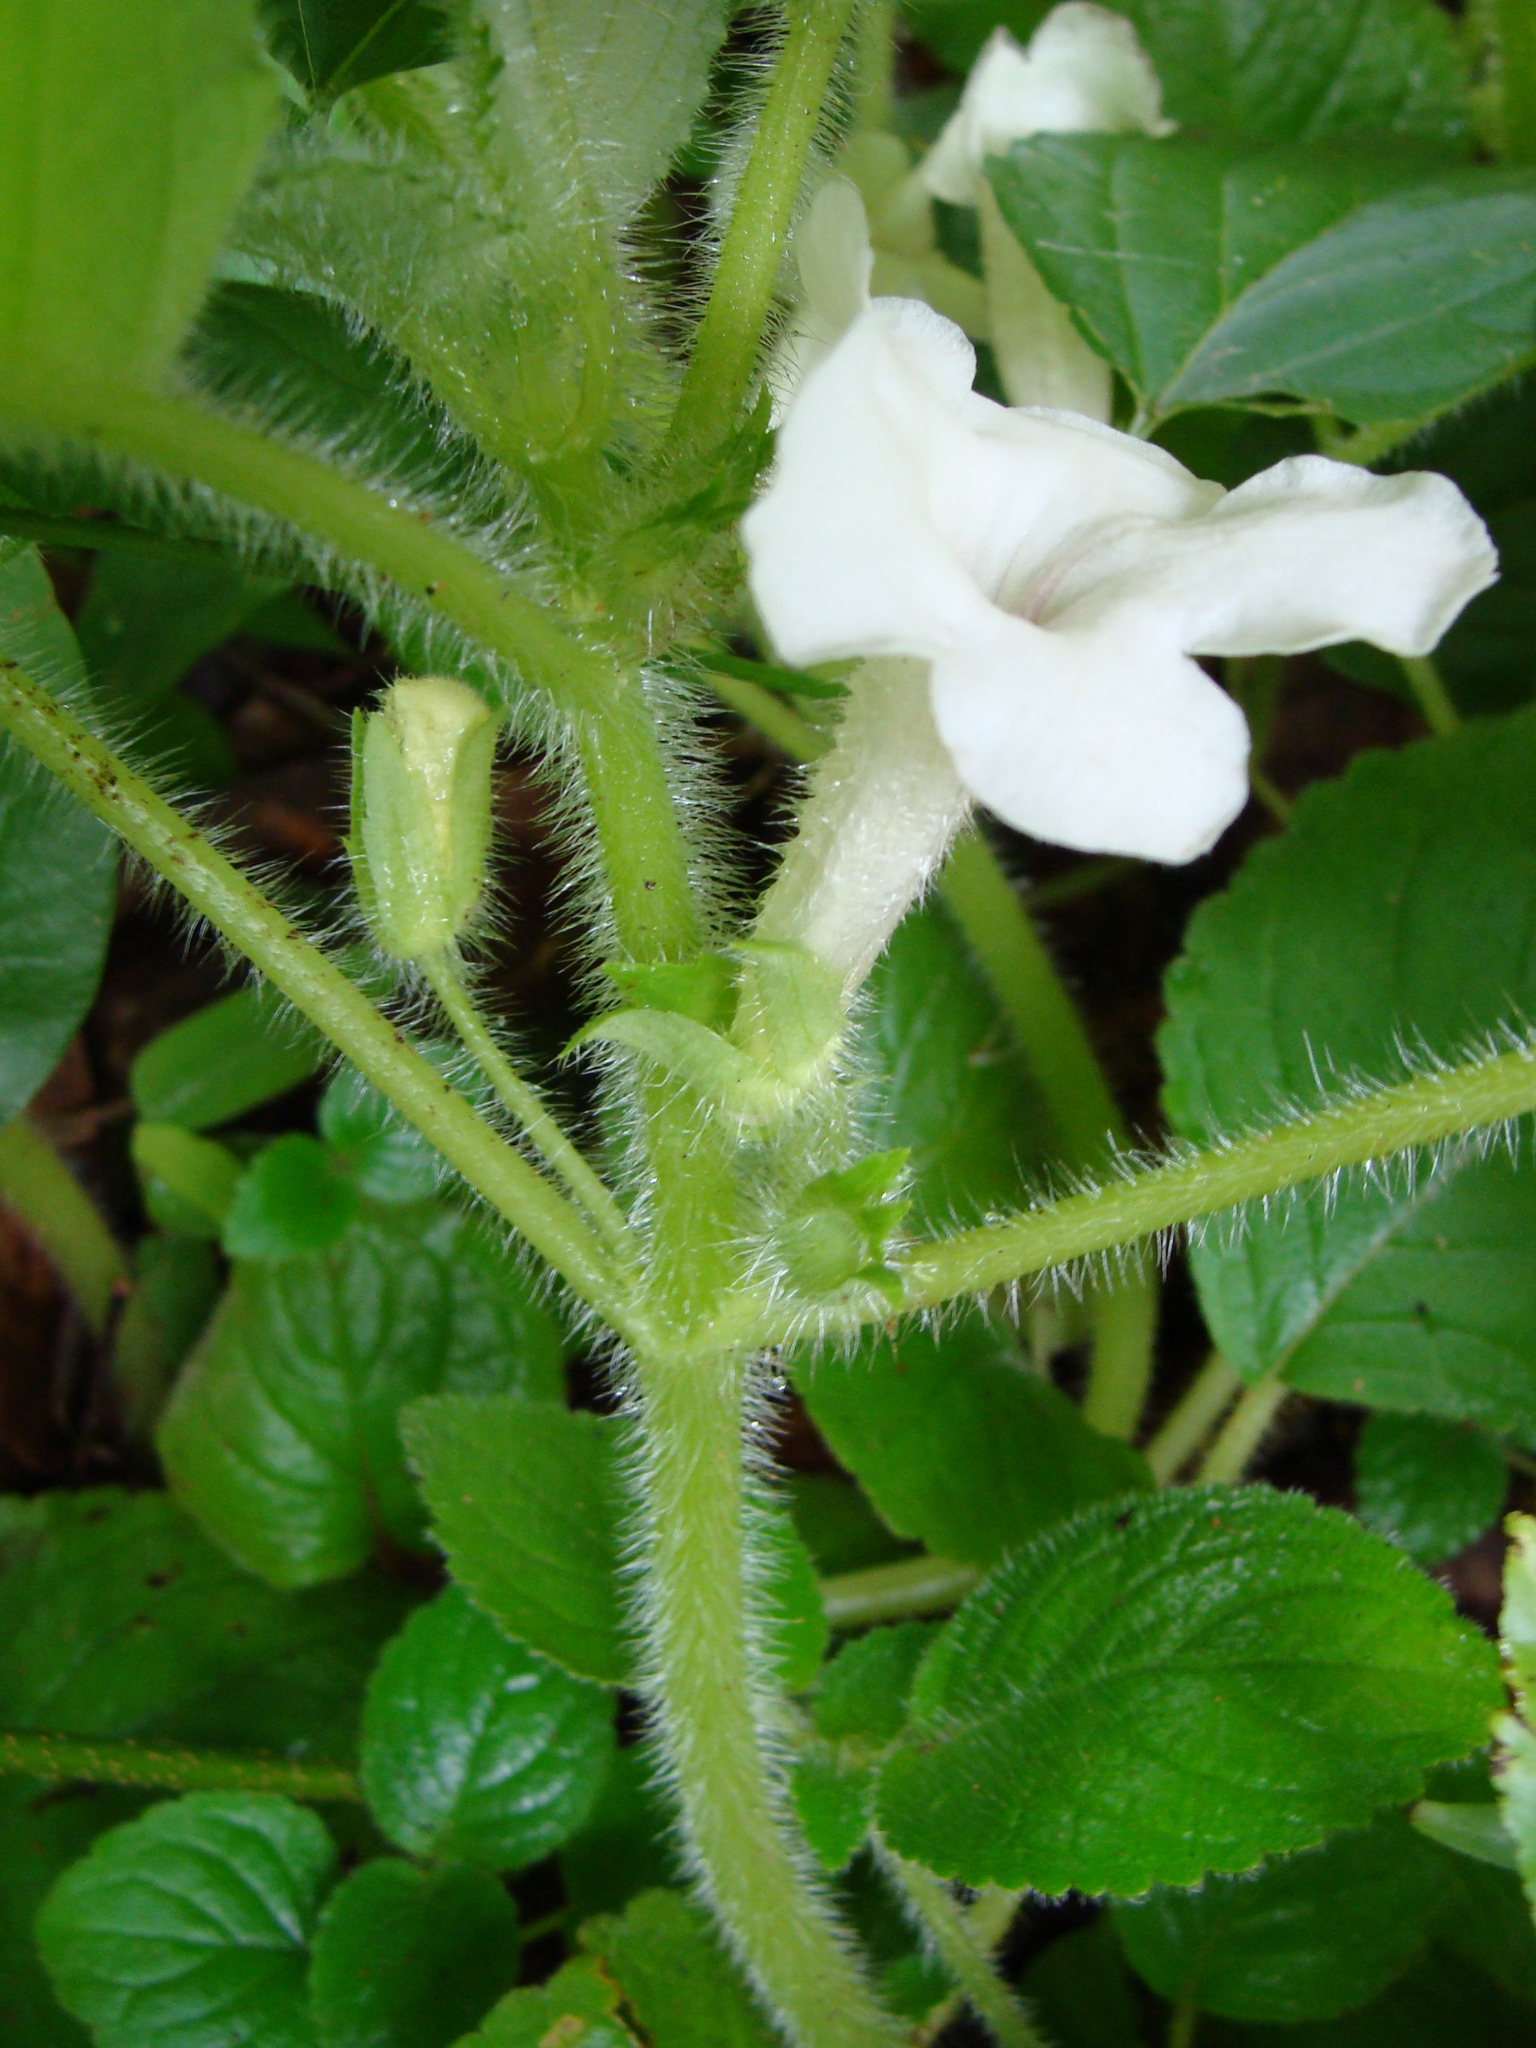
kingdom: Plantae
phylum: Tracheophyta
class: Magnoliopsida
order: Lamiales
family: Gesneriaceae
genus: Chrysothemis
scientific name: Chrysothemis panamensis
